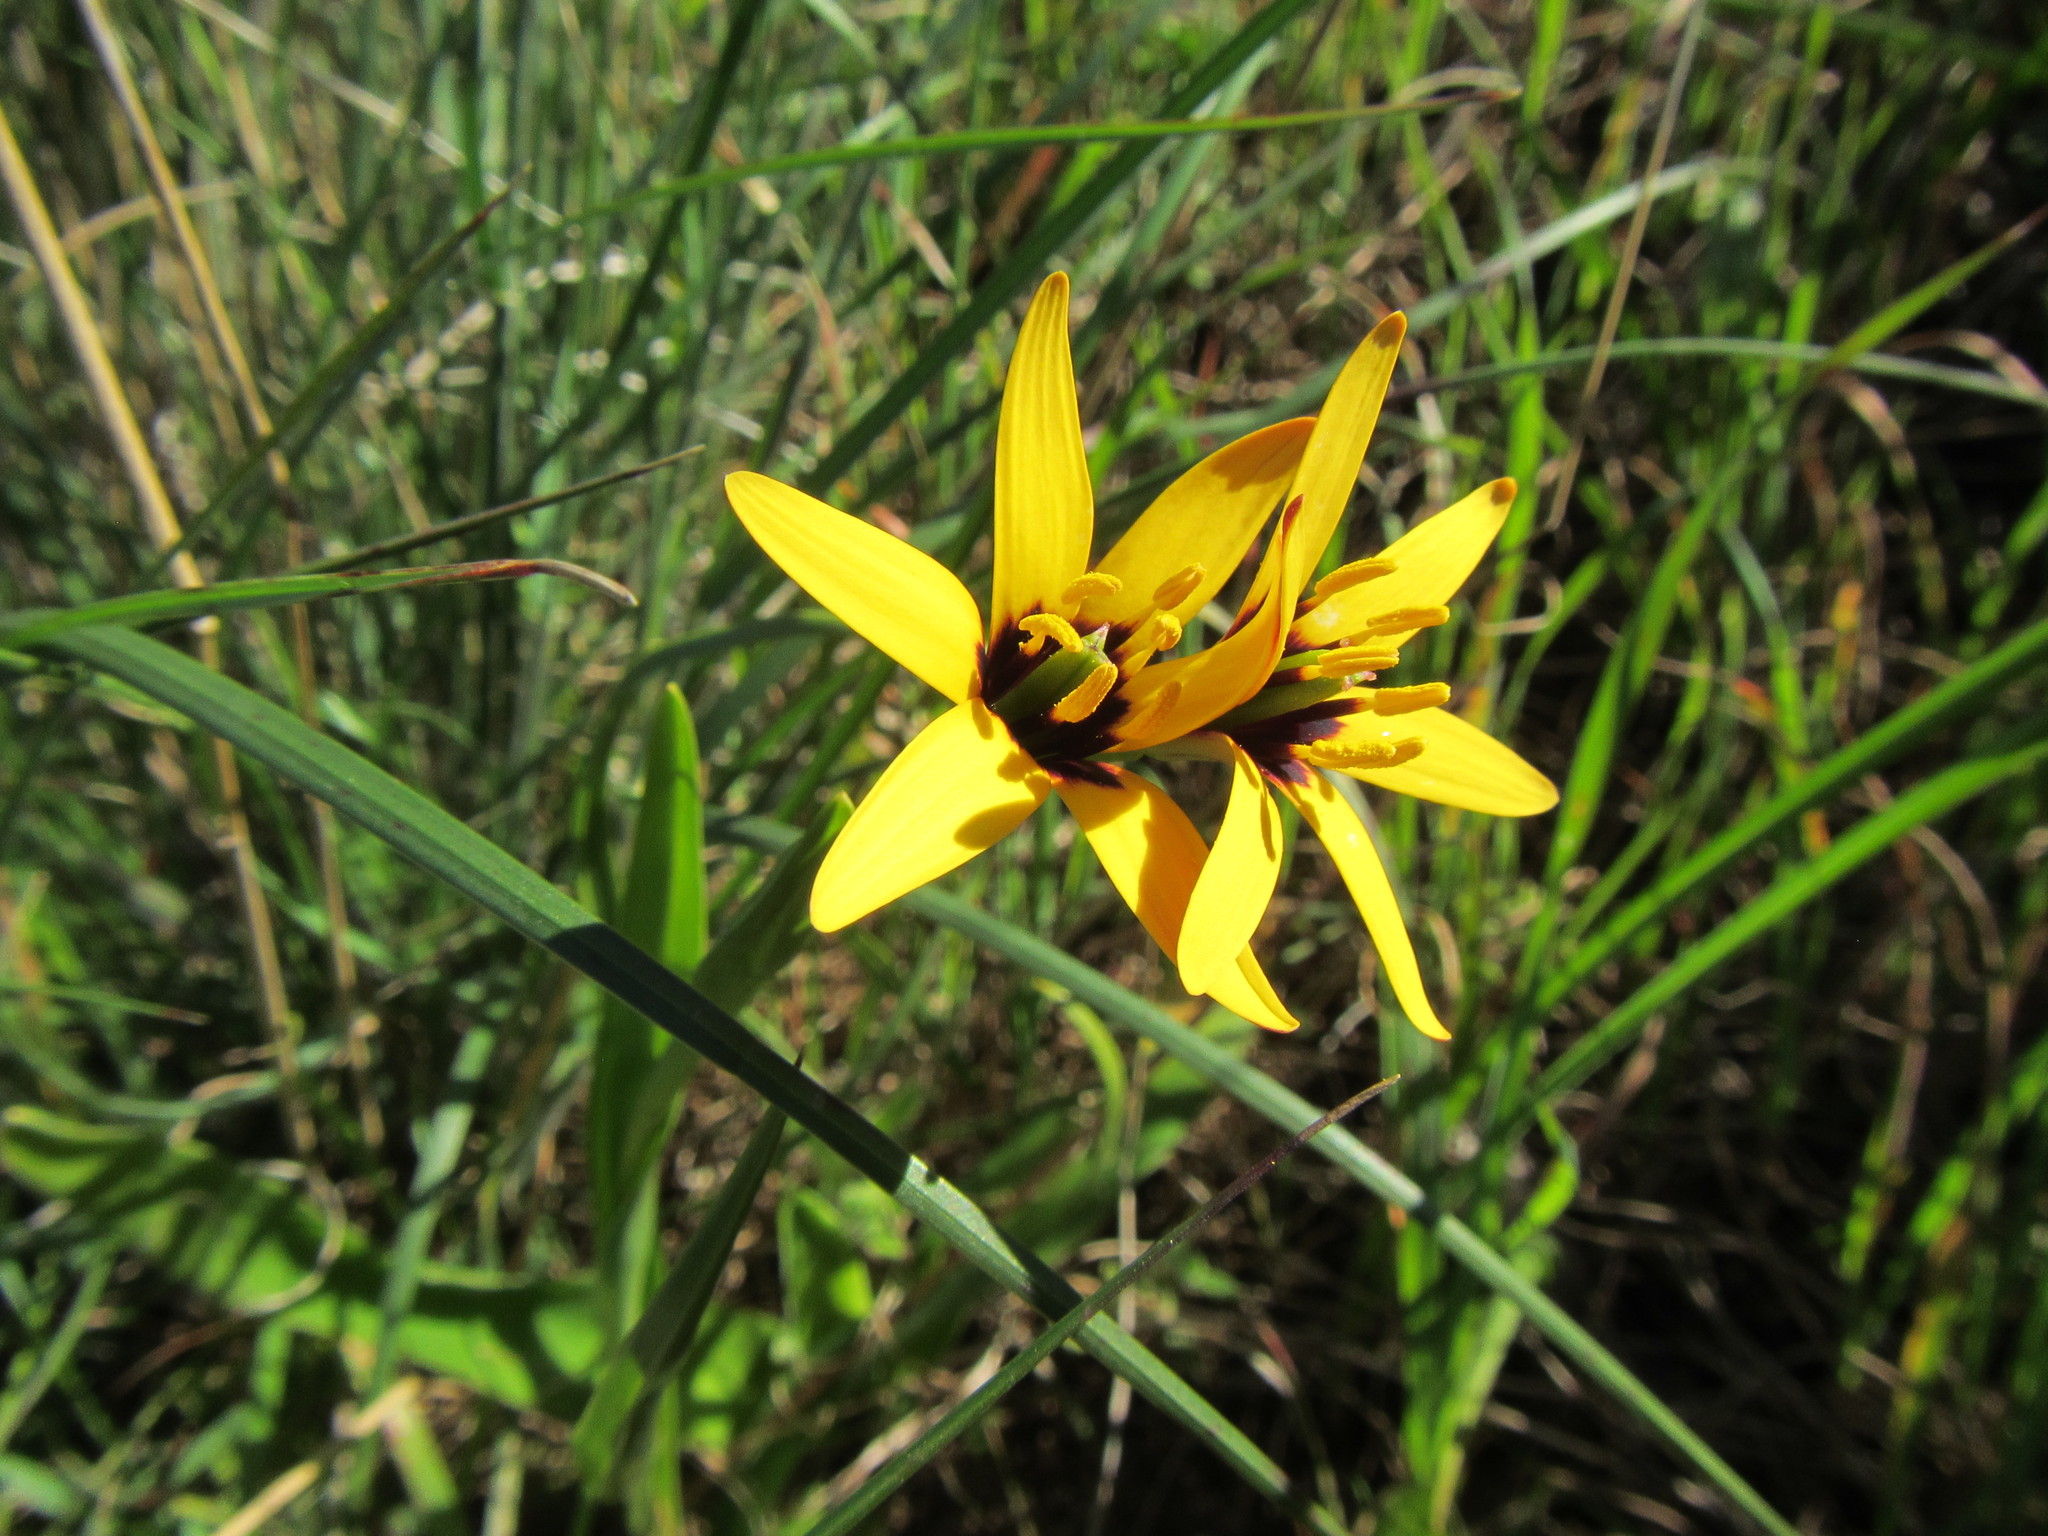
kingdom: Plantae
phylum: Tracheophyta
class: Liliopsida
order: Liliales
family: Colchicaceae
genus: Baeometra
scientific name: Baeometra uniflora
